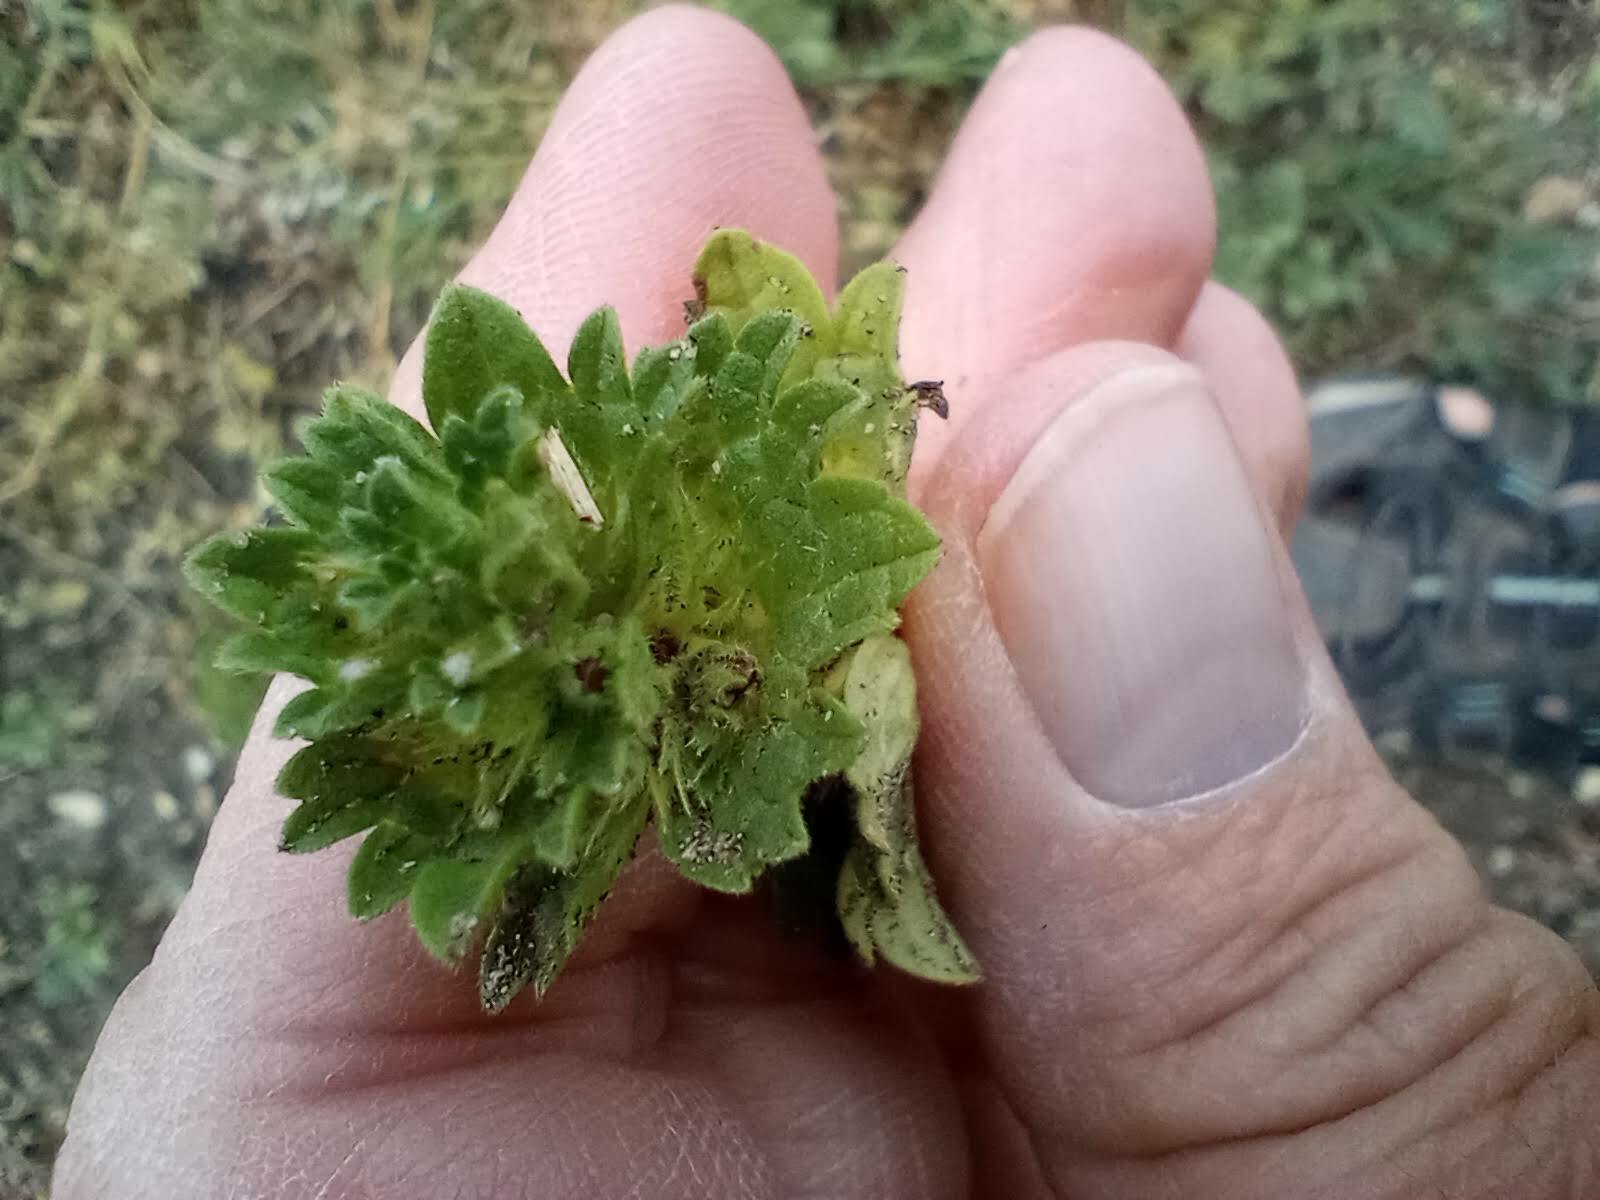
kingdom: Plantae
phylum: Tracheophyta
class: Magnoliopsida
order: Lamiales
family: Lamiaceae
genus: Lamium
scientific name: Lamium amplexicaule
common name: Henbit dead-nettle
